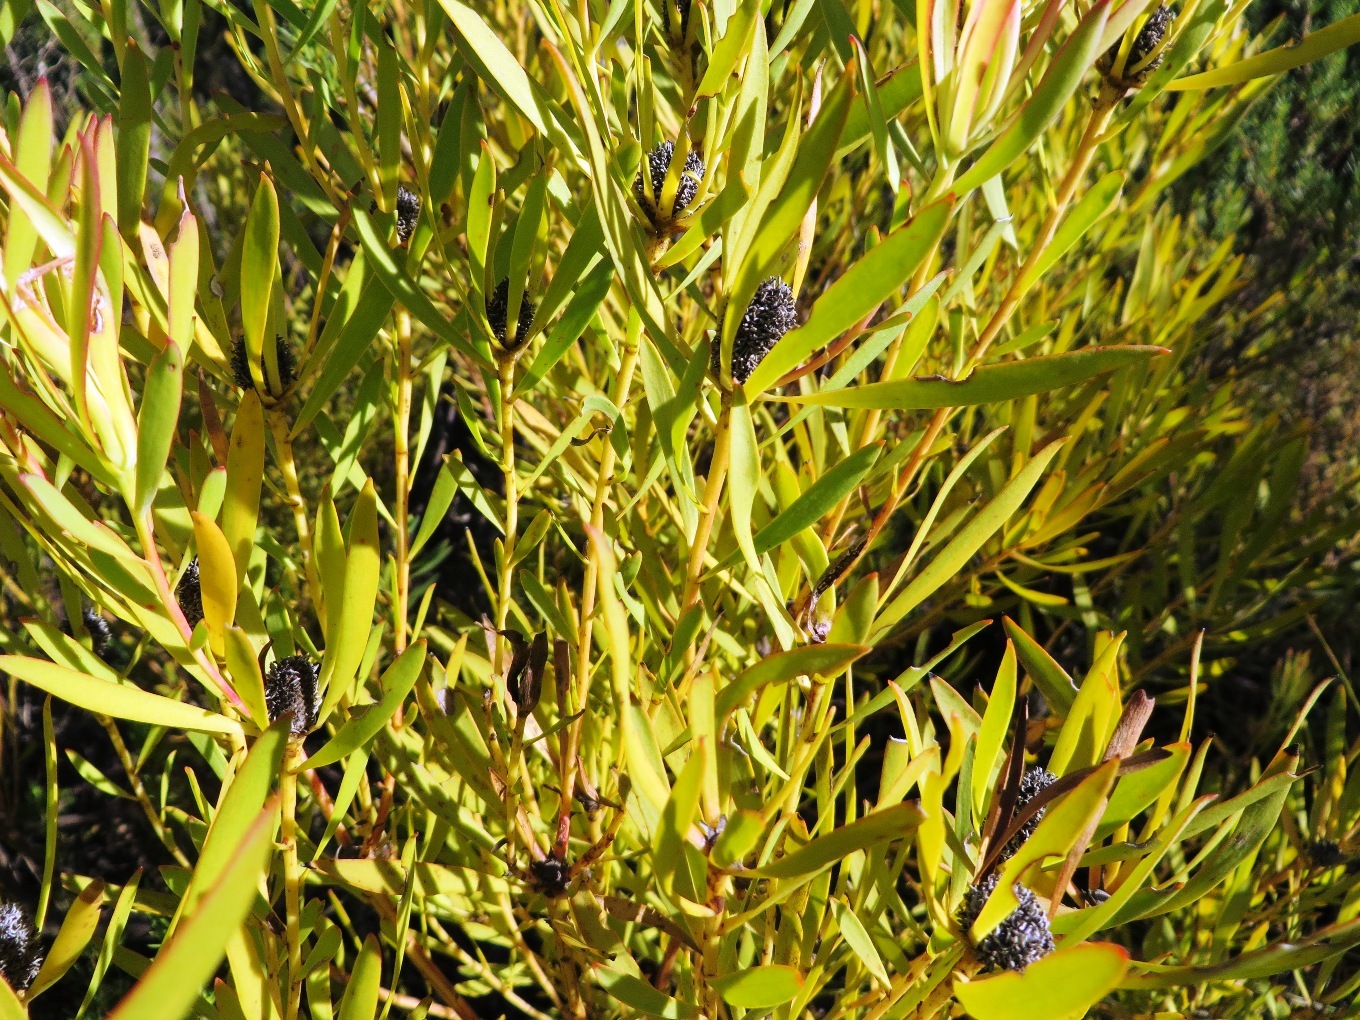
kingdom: Plantae
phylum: Tracheophyta
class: Magnoliopsida
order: Proteales
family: Proteaceae
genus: Leucadendron
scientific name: Leucadendron salignum
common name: Common sunshine conebush
